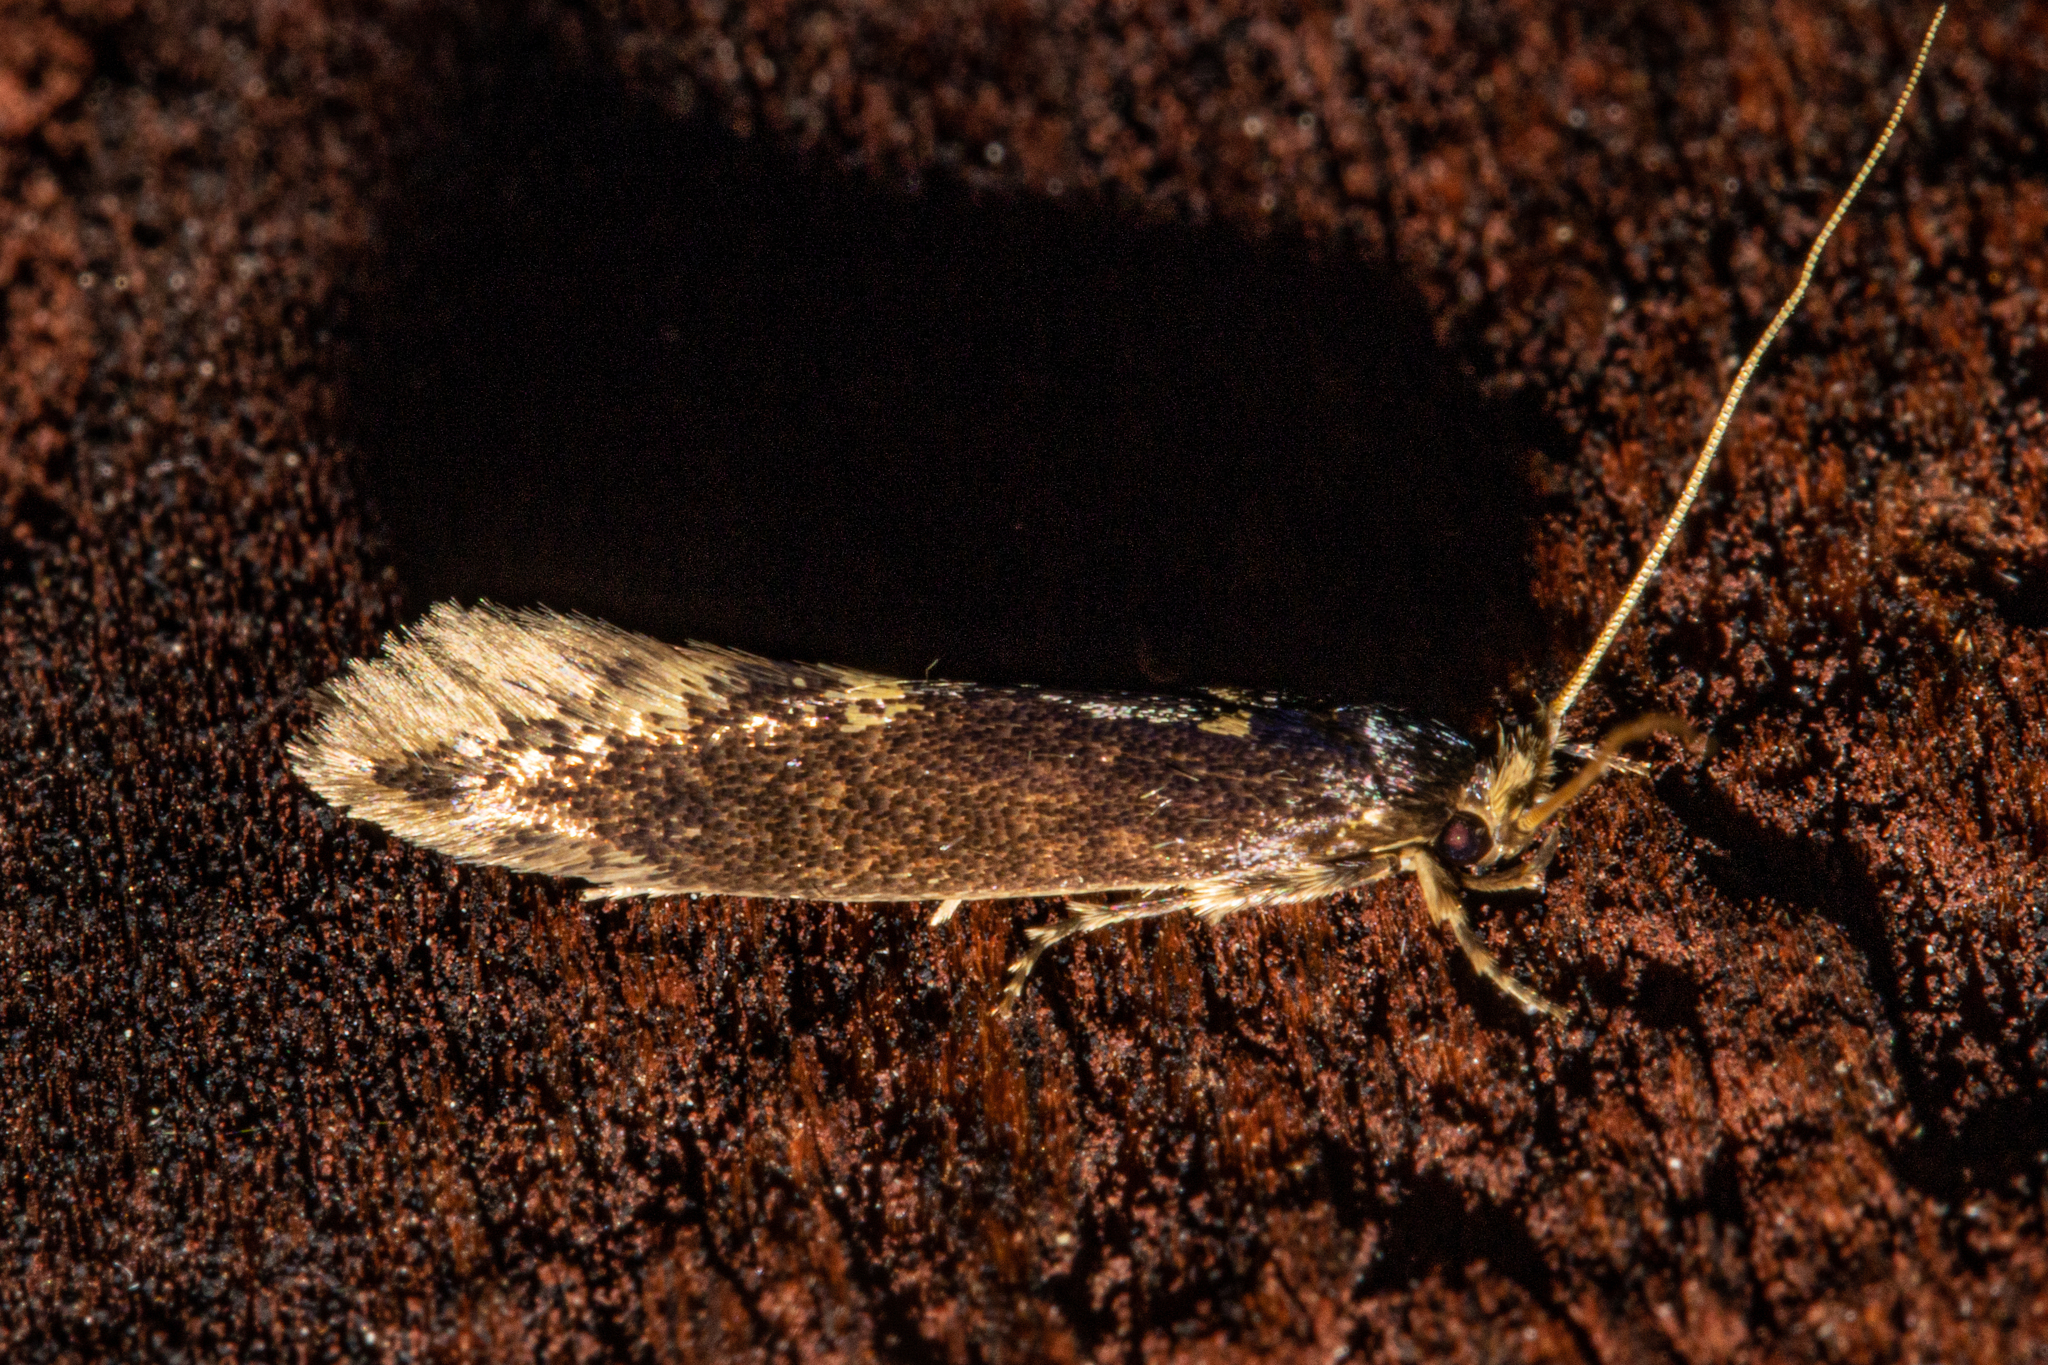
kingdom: Animalia
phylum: Arthropoda
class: Insecta
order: Lepidoptera
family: Tineidae
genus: Opogona
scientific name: Opogona omoscopa
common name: Moth
